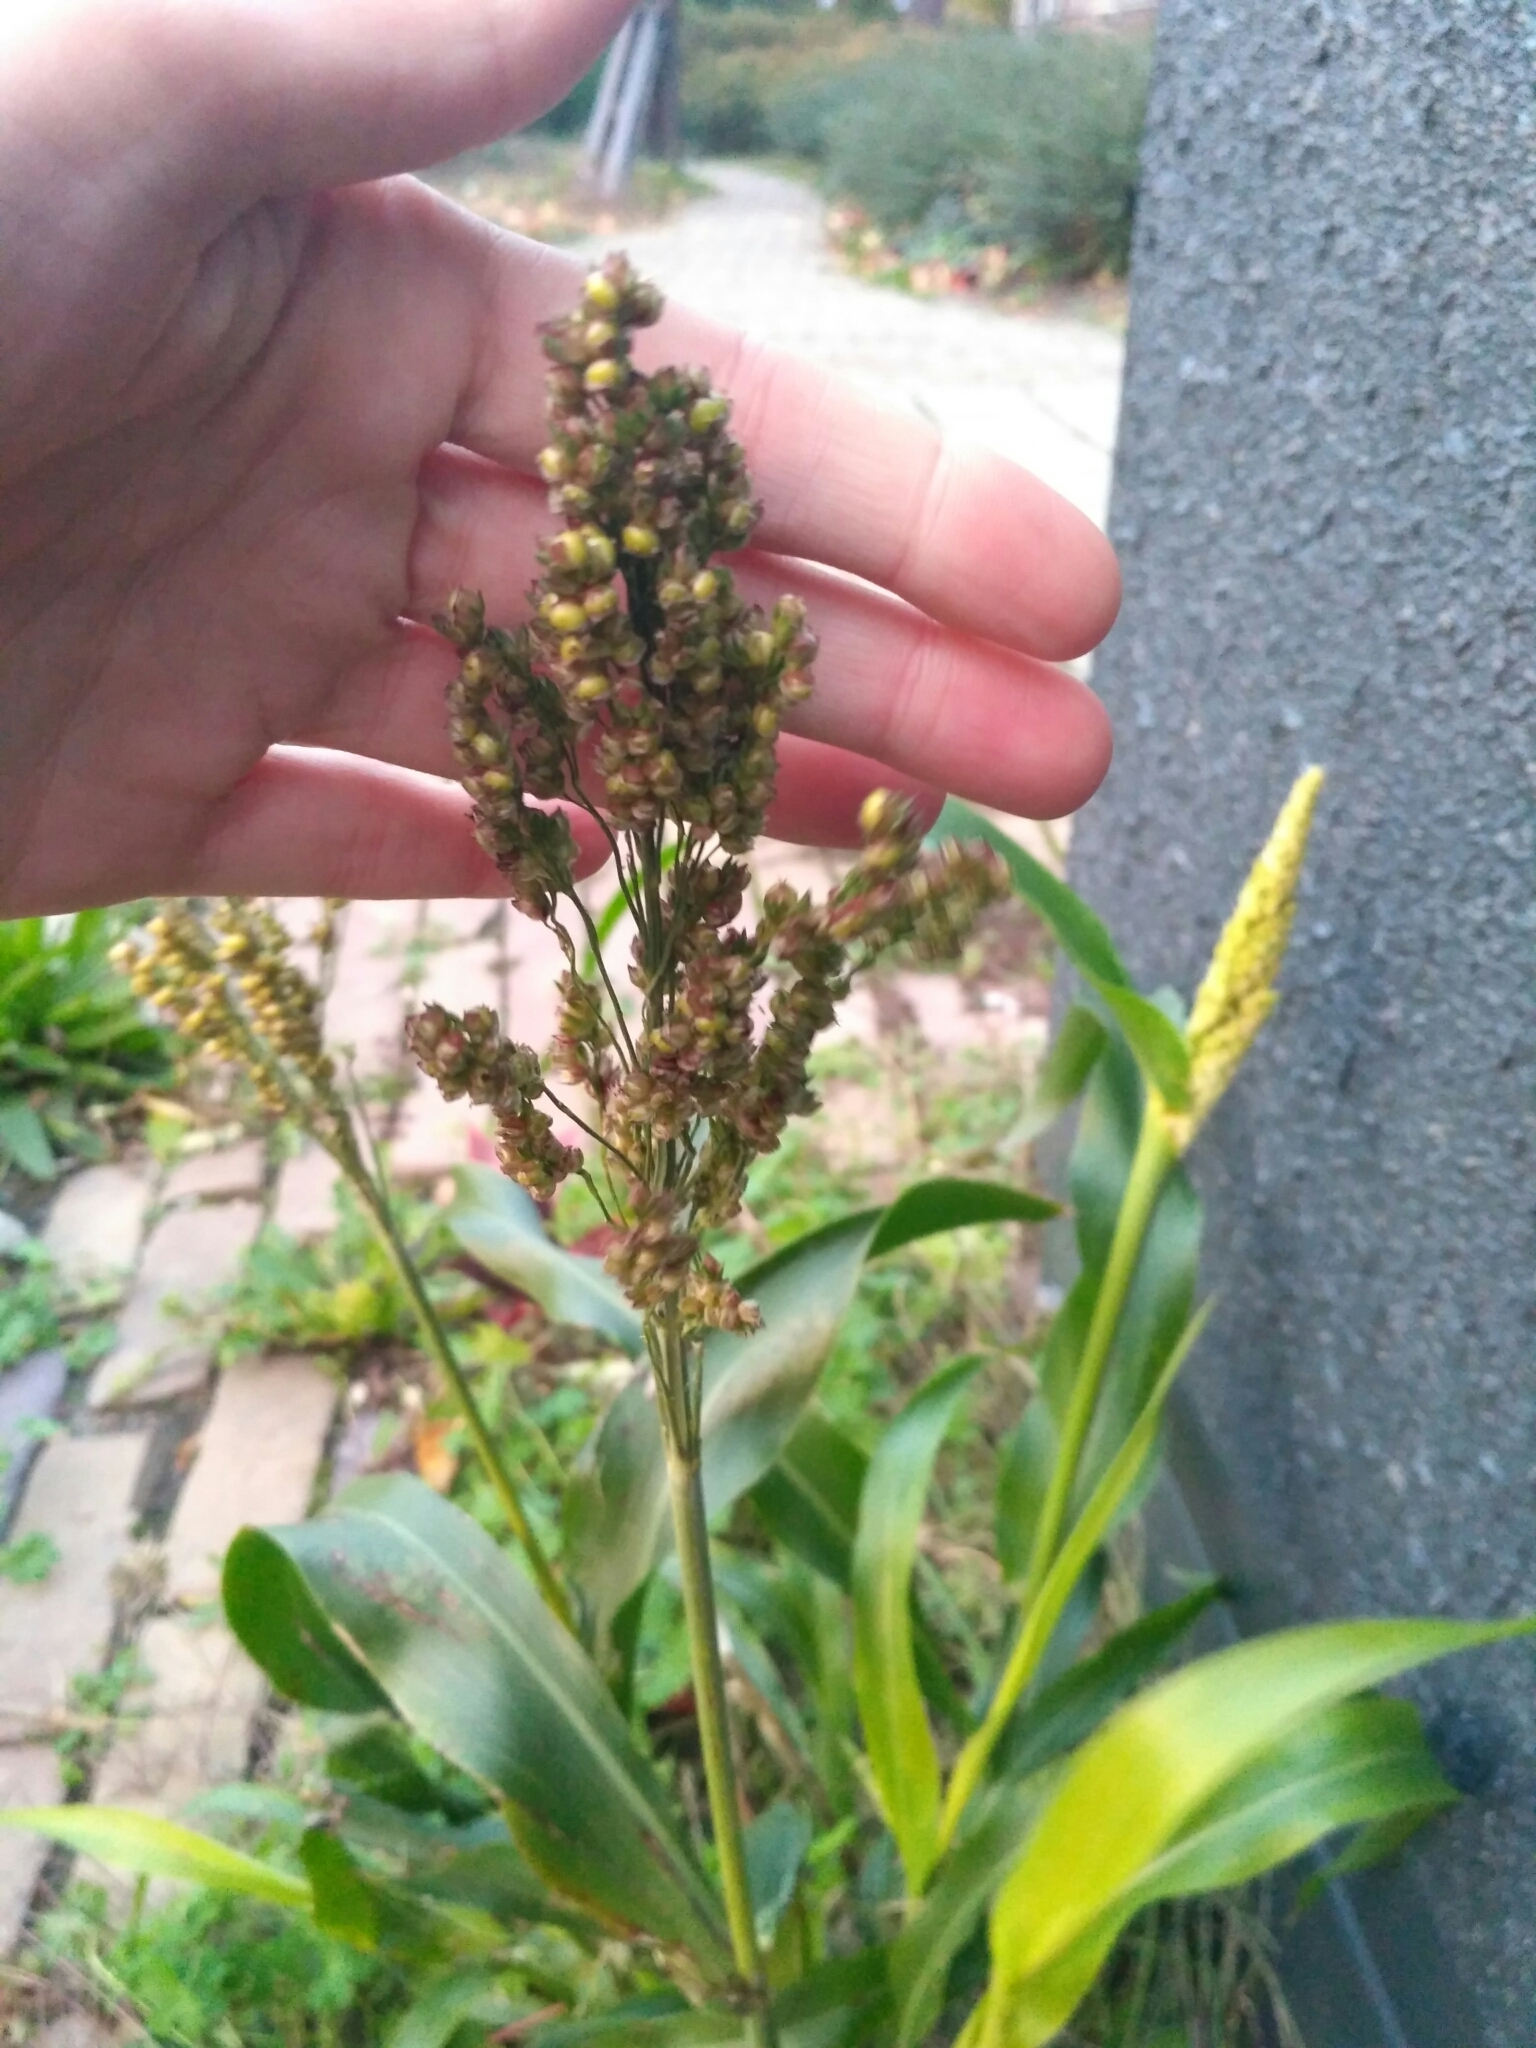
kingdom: Plantae
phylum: Tracheophyta
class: Liliopsida
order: Poales
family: Poaceae
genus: Sorghum
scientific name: Sorghum bicolor
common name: Sorghum
